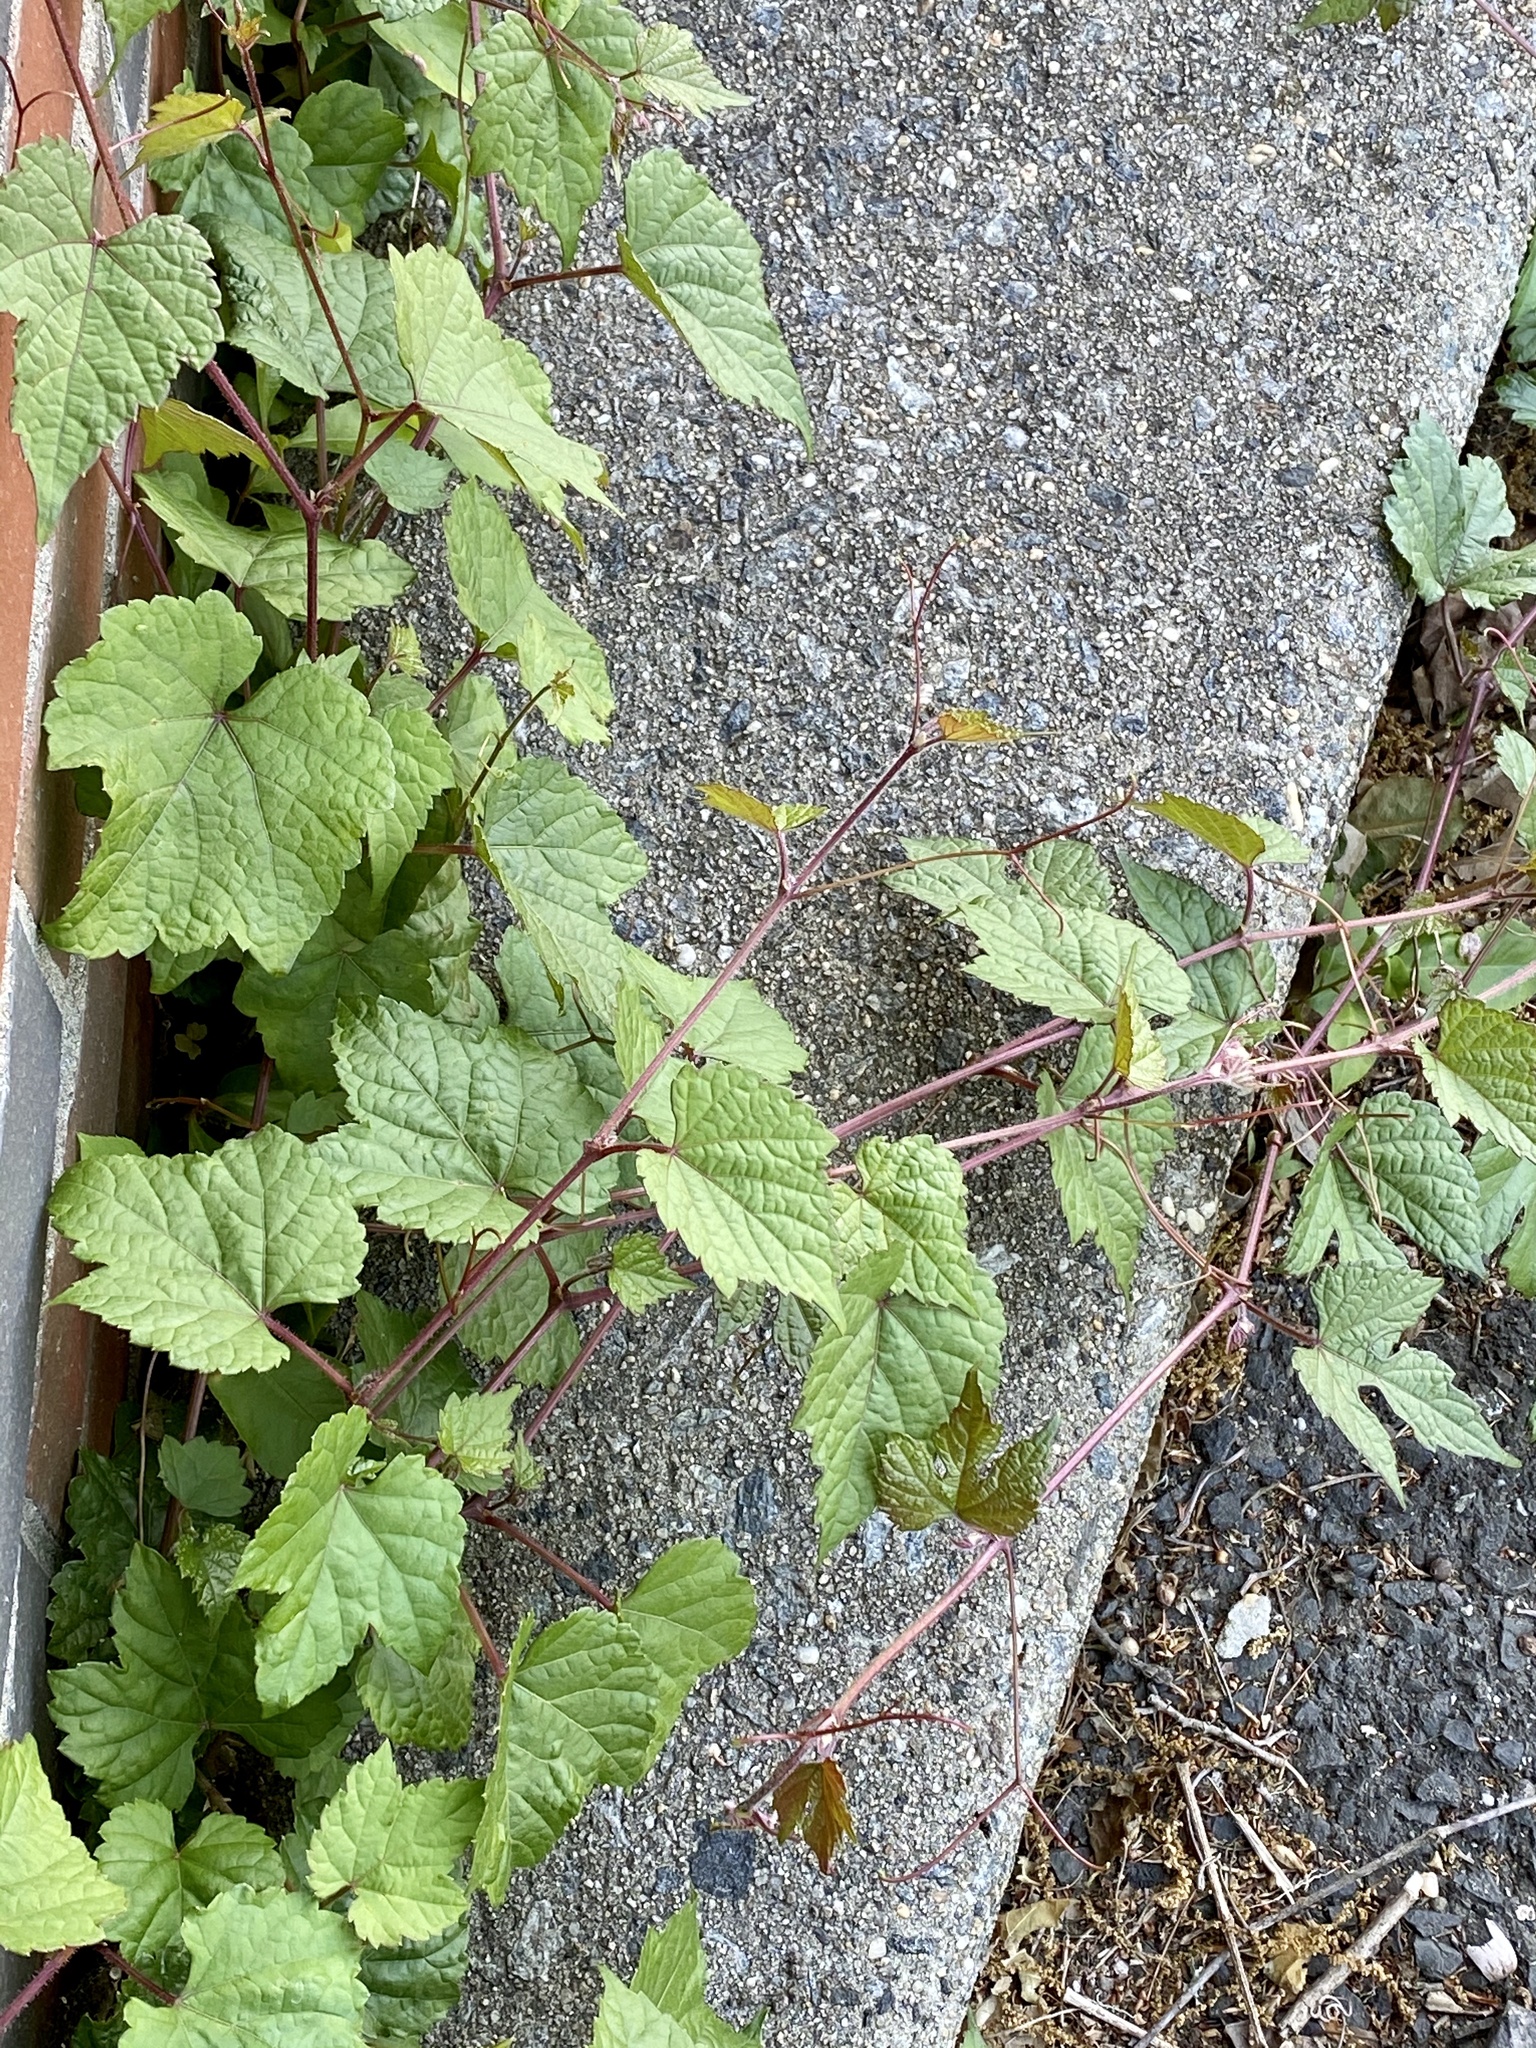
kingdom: Plantae
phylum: Tracheophyta
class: Magnoliopsida
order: Vitales
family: Vitaceae
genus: Ampelopsis
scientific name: Ampelopsis glandulosa
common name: Amur peppervine
